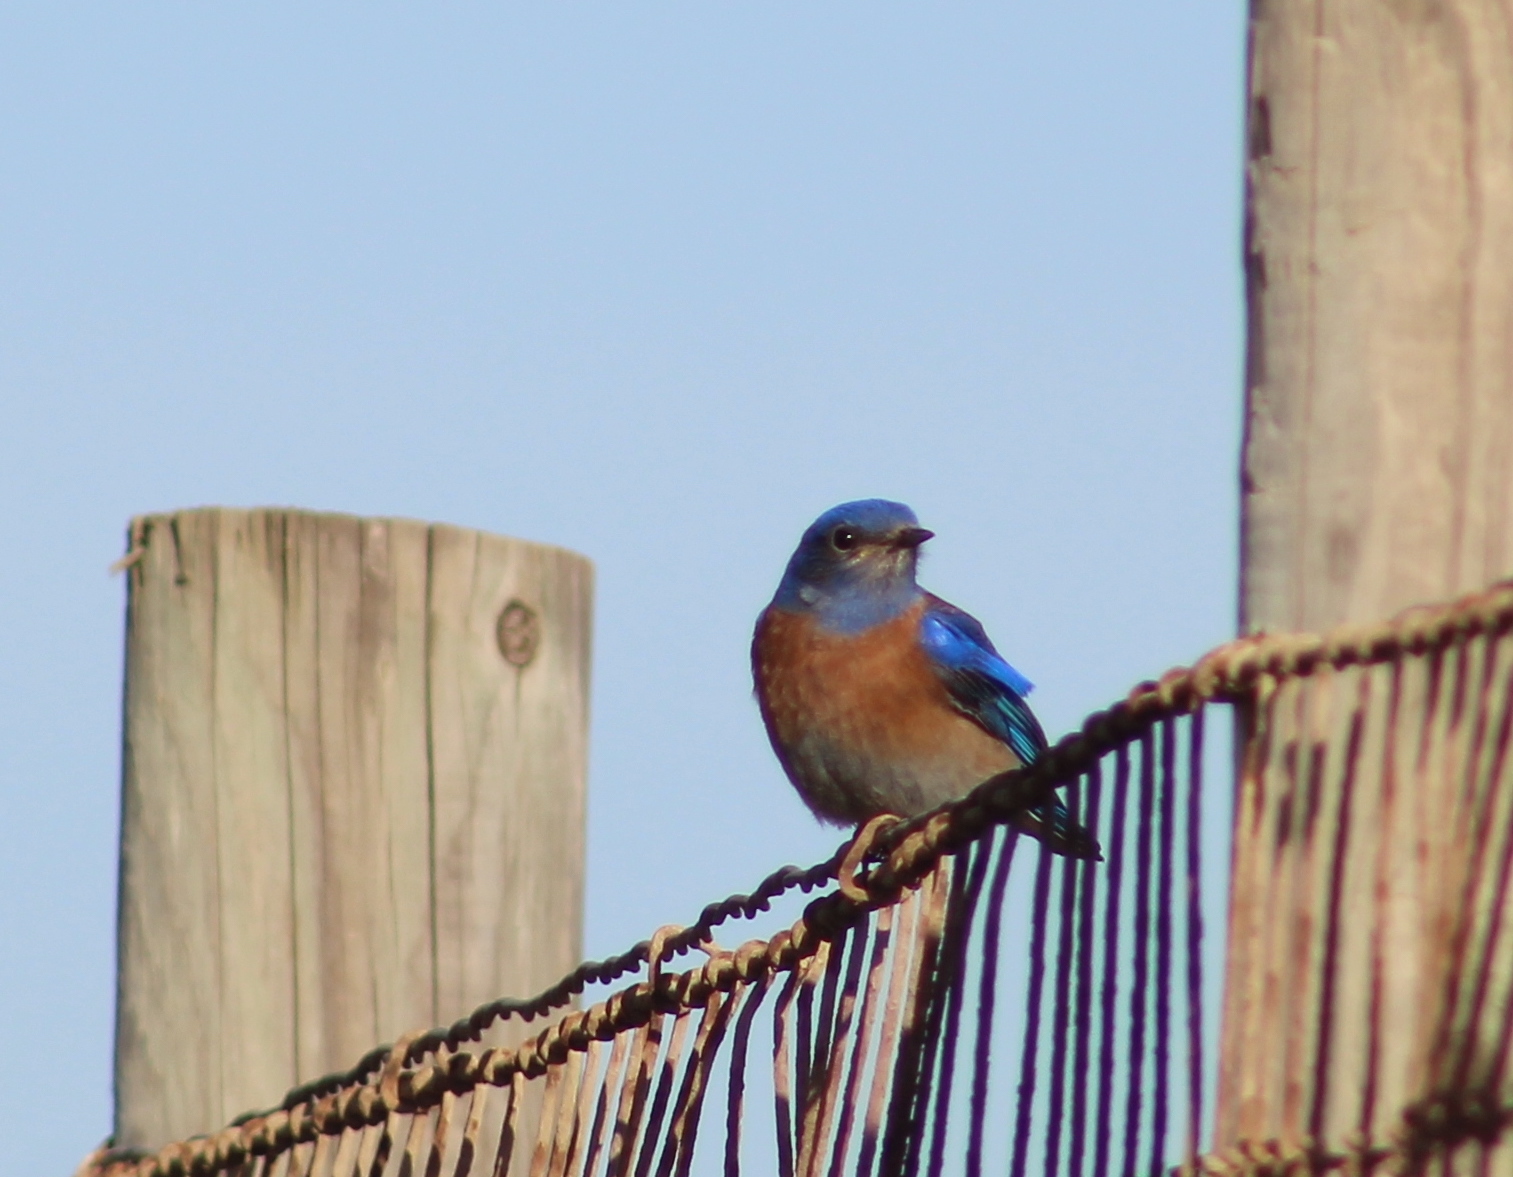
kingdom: Animalia
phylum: Chordata
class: Aves
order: Passeriformes
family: Turdidae
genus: Sialia
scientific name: Sialia mexicana
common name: Western bluebird
